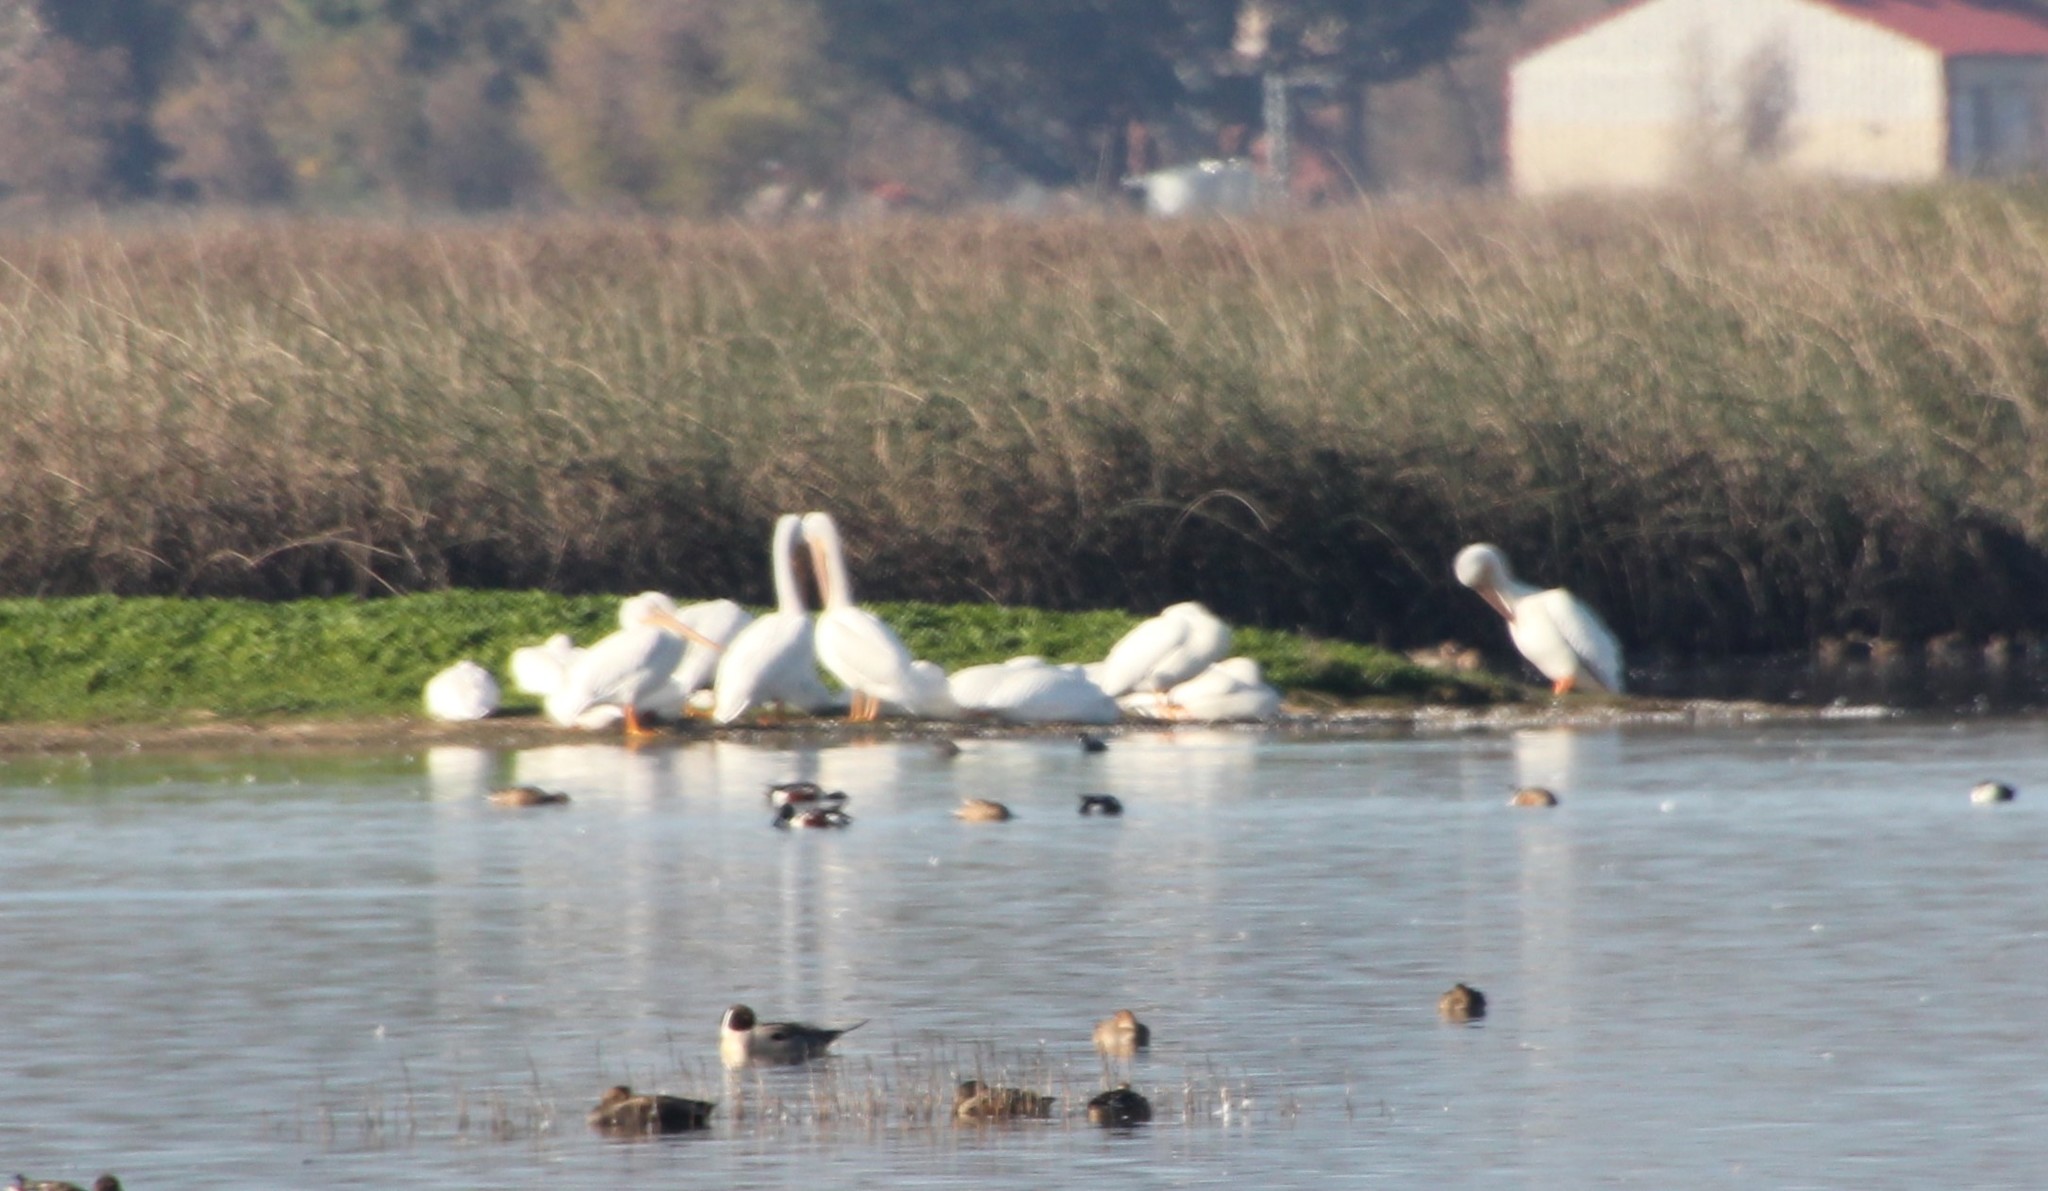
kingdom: Animalia
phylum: Chordata
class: Aves
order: Pelecaniformes
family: Pelecanidae
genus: Pelecanus
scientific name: Pelecanus erythrorhynchos
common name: American white pelican
